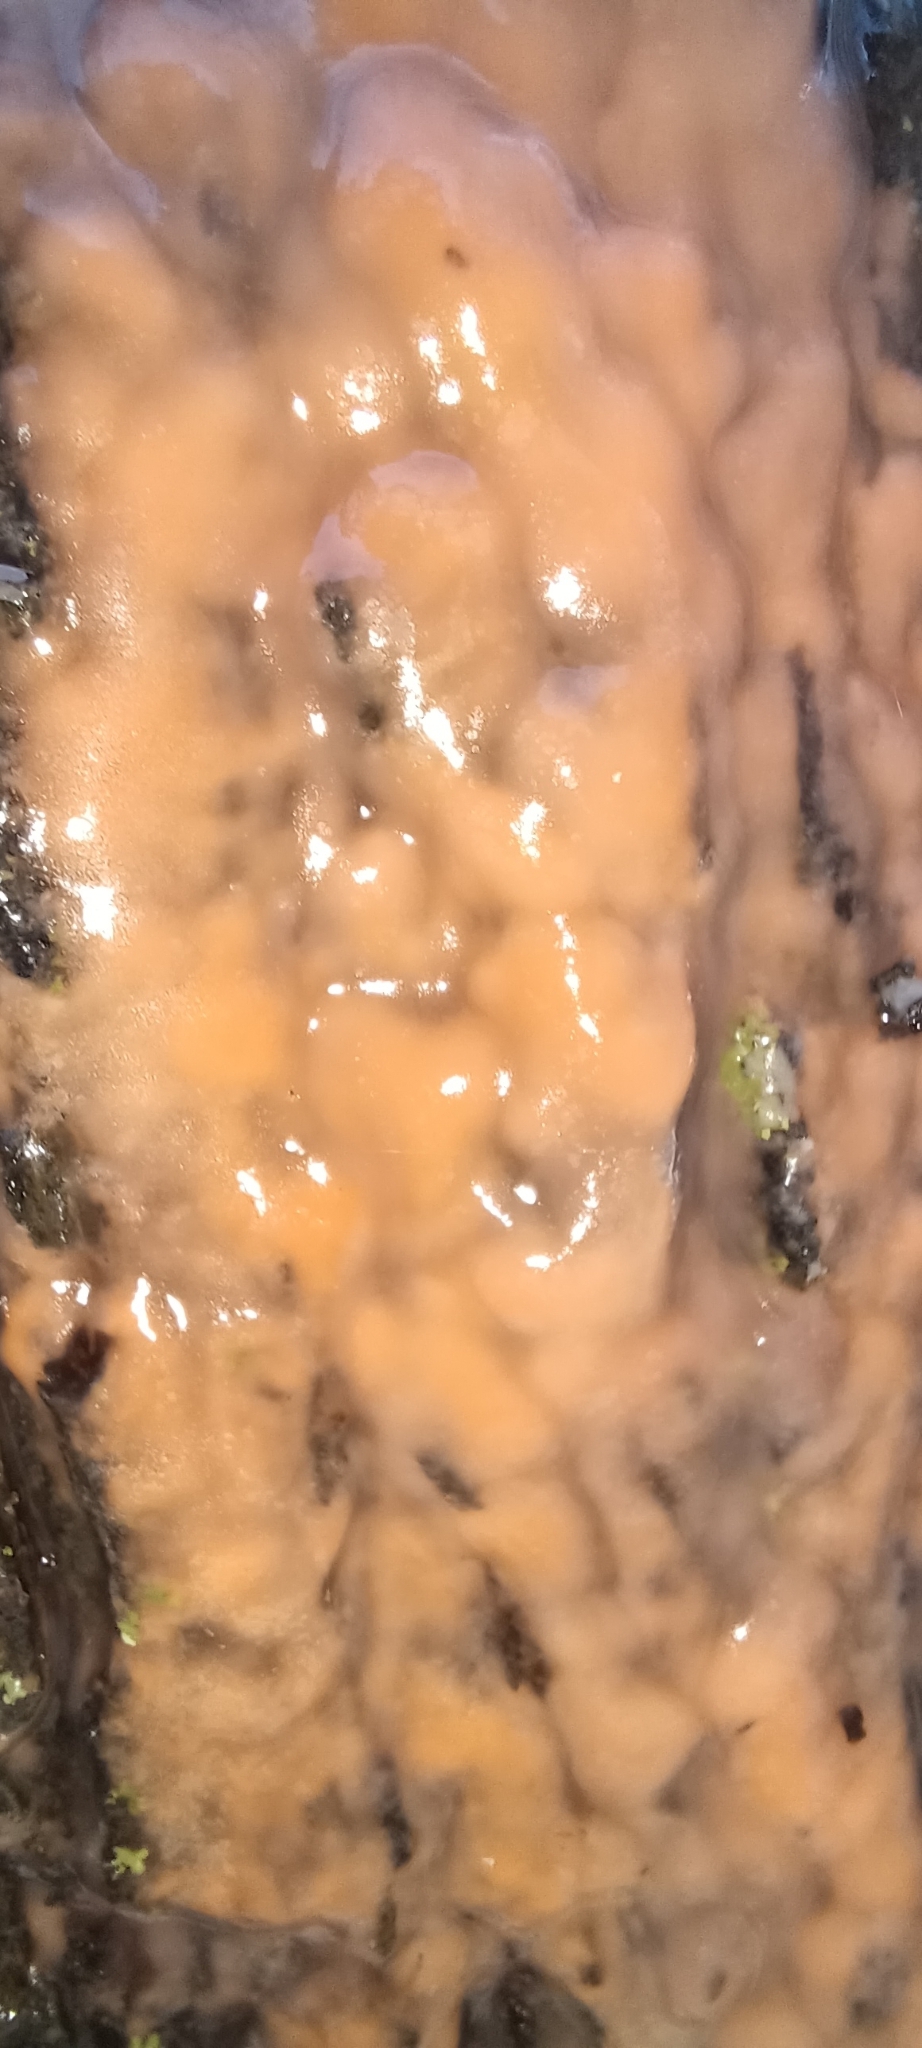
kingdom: Fungi
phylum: Basidiomycota
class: Tremellomycetes
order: Cystofilobasidiales
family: Cystofilobasidiaceae
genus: Cystofilobasidium
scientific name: Cystofilobasidium macerans
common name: Sap yeast
